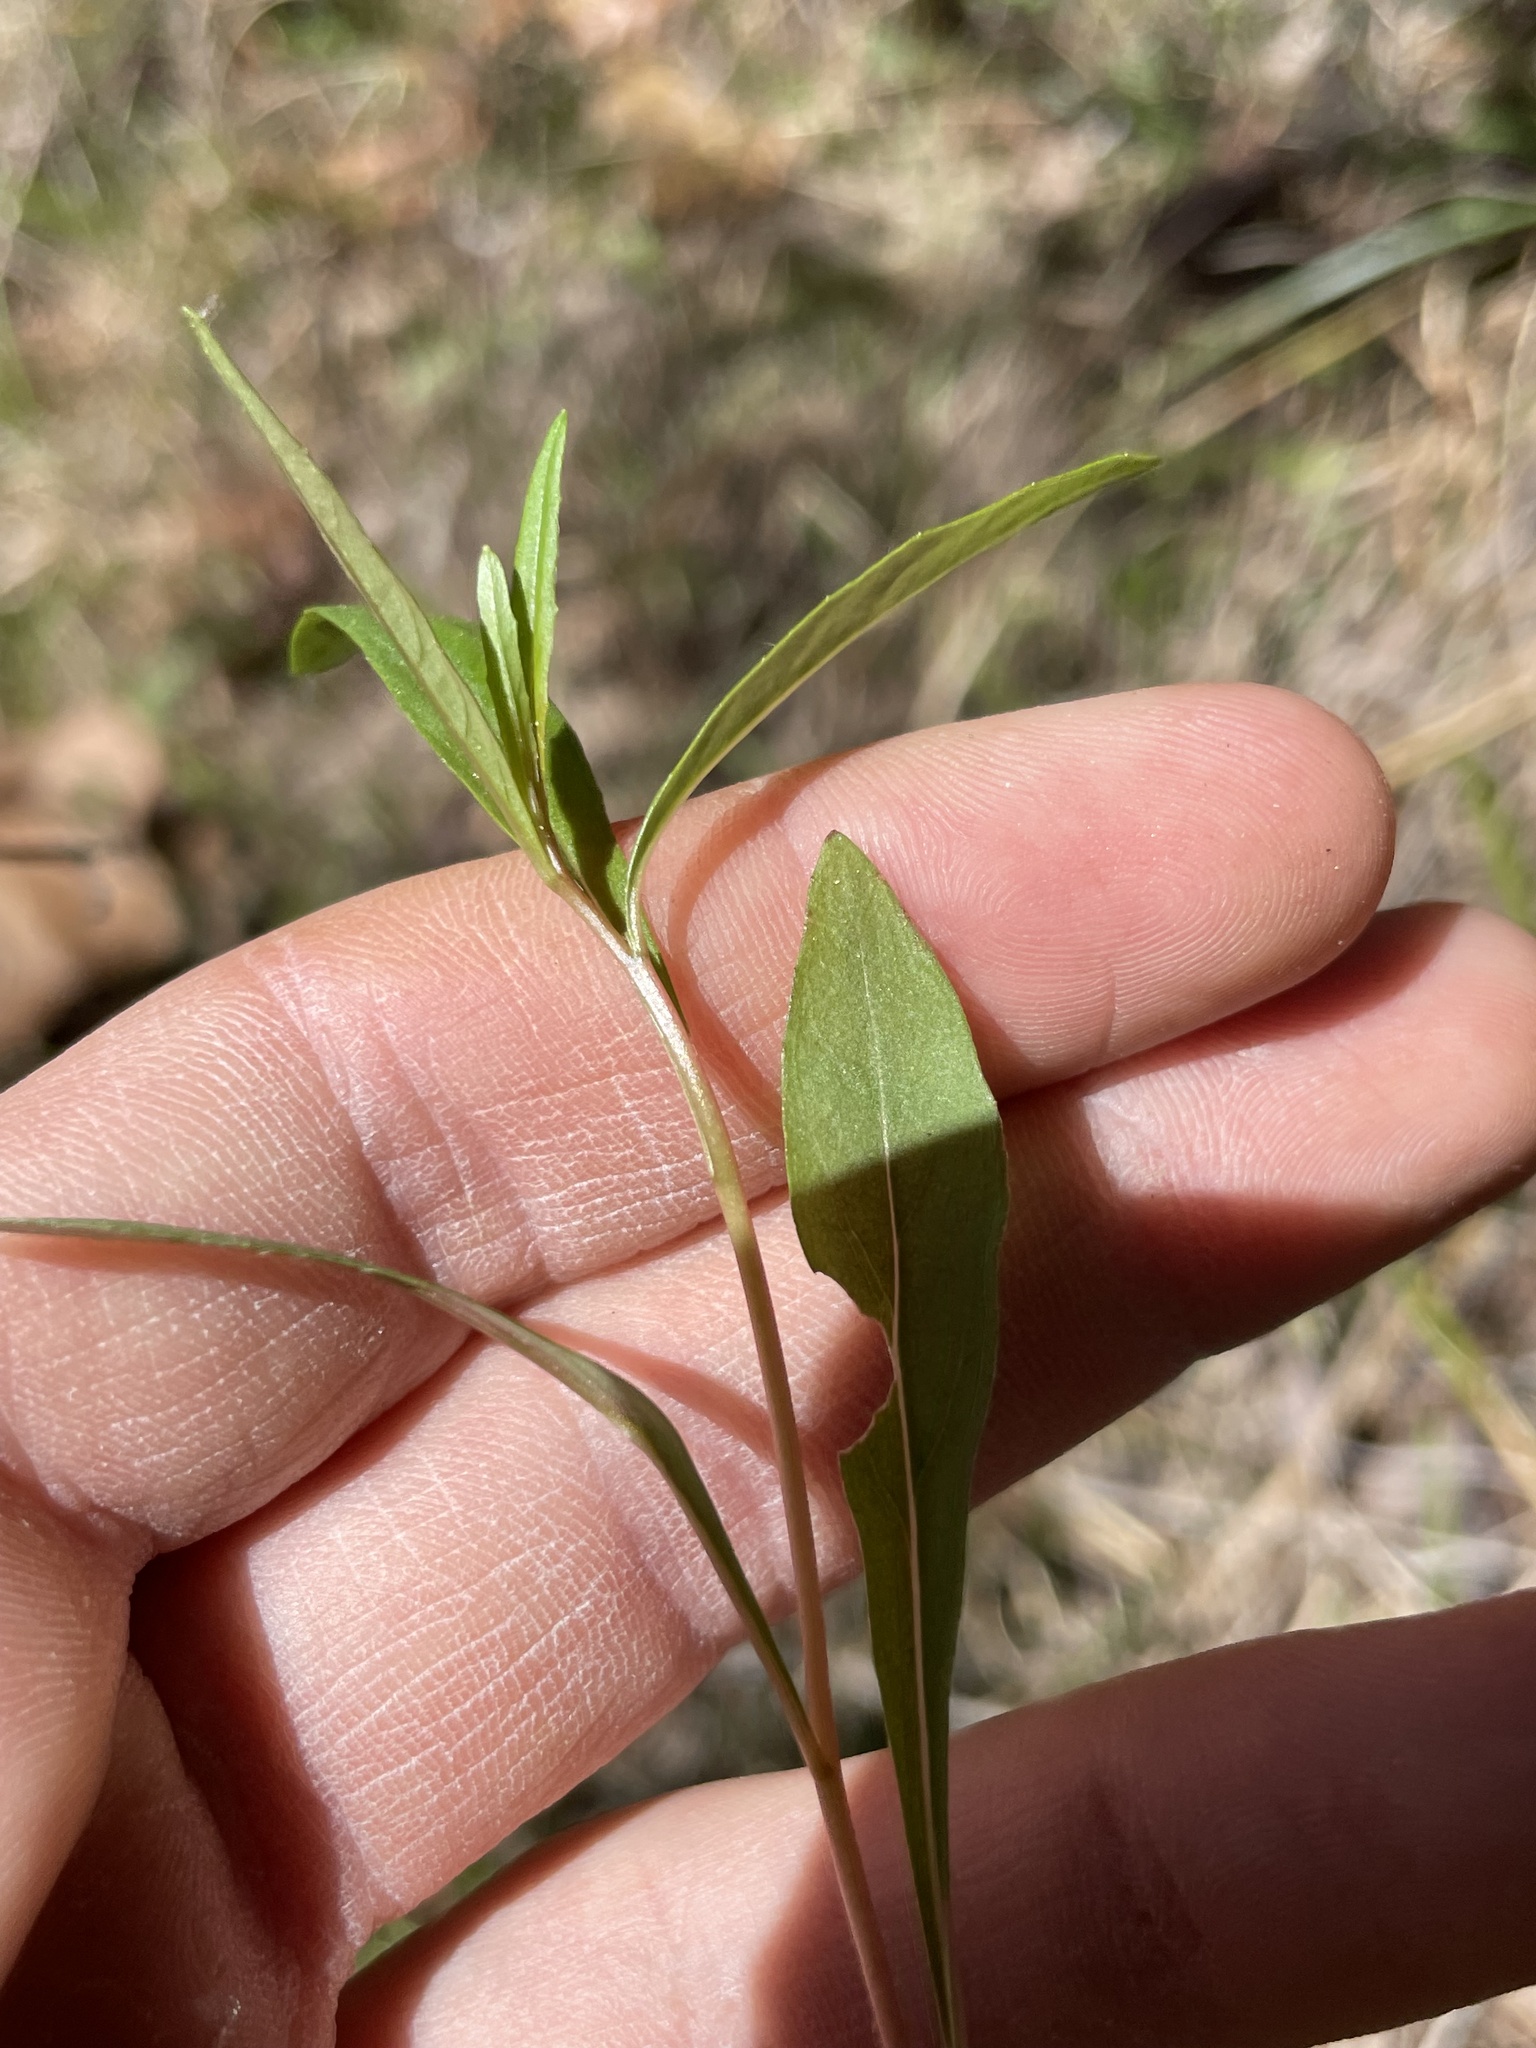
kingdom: Plantae
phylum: Tracheophyta
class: Magnoliopsida
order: Myrtales
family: Onagraceae
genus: Oenothera
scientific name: Oenothera fruticosa
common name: Southern sundrops
